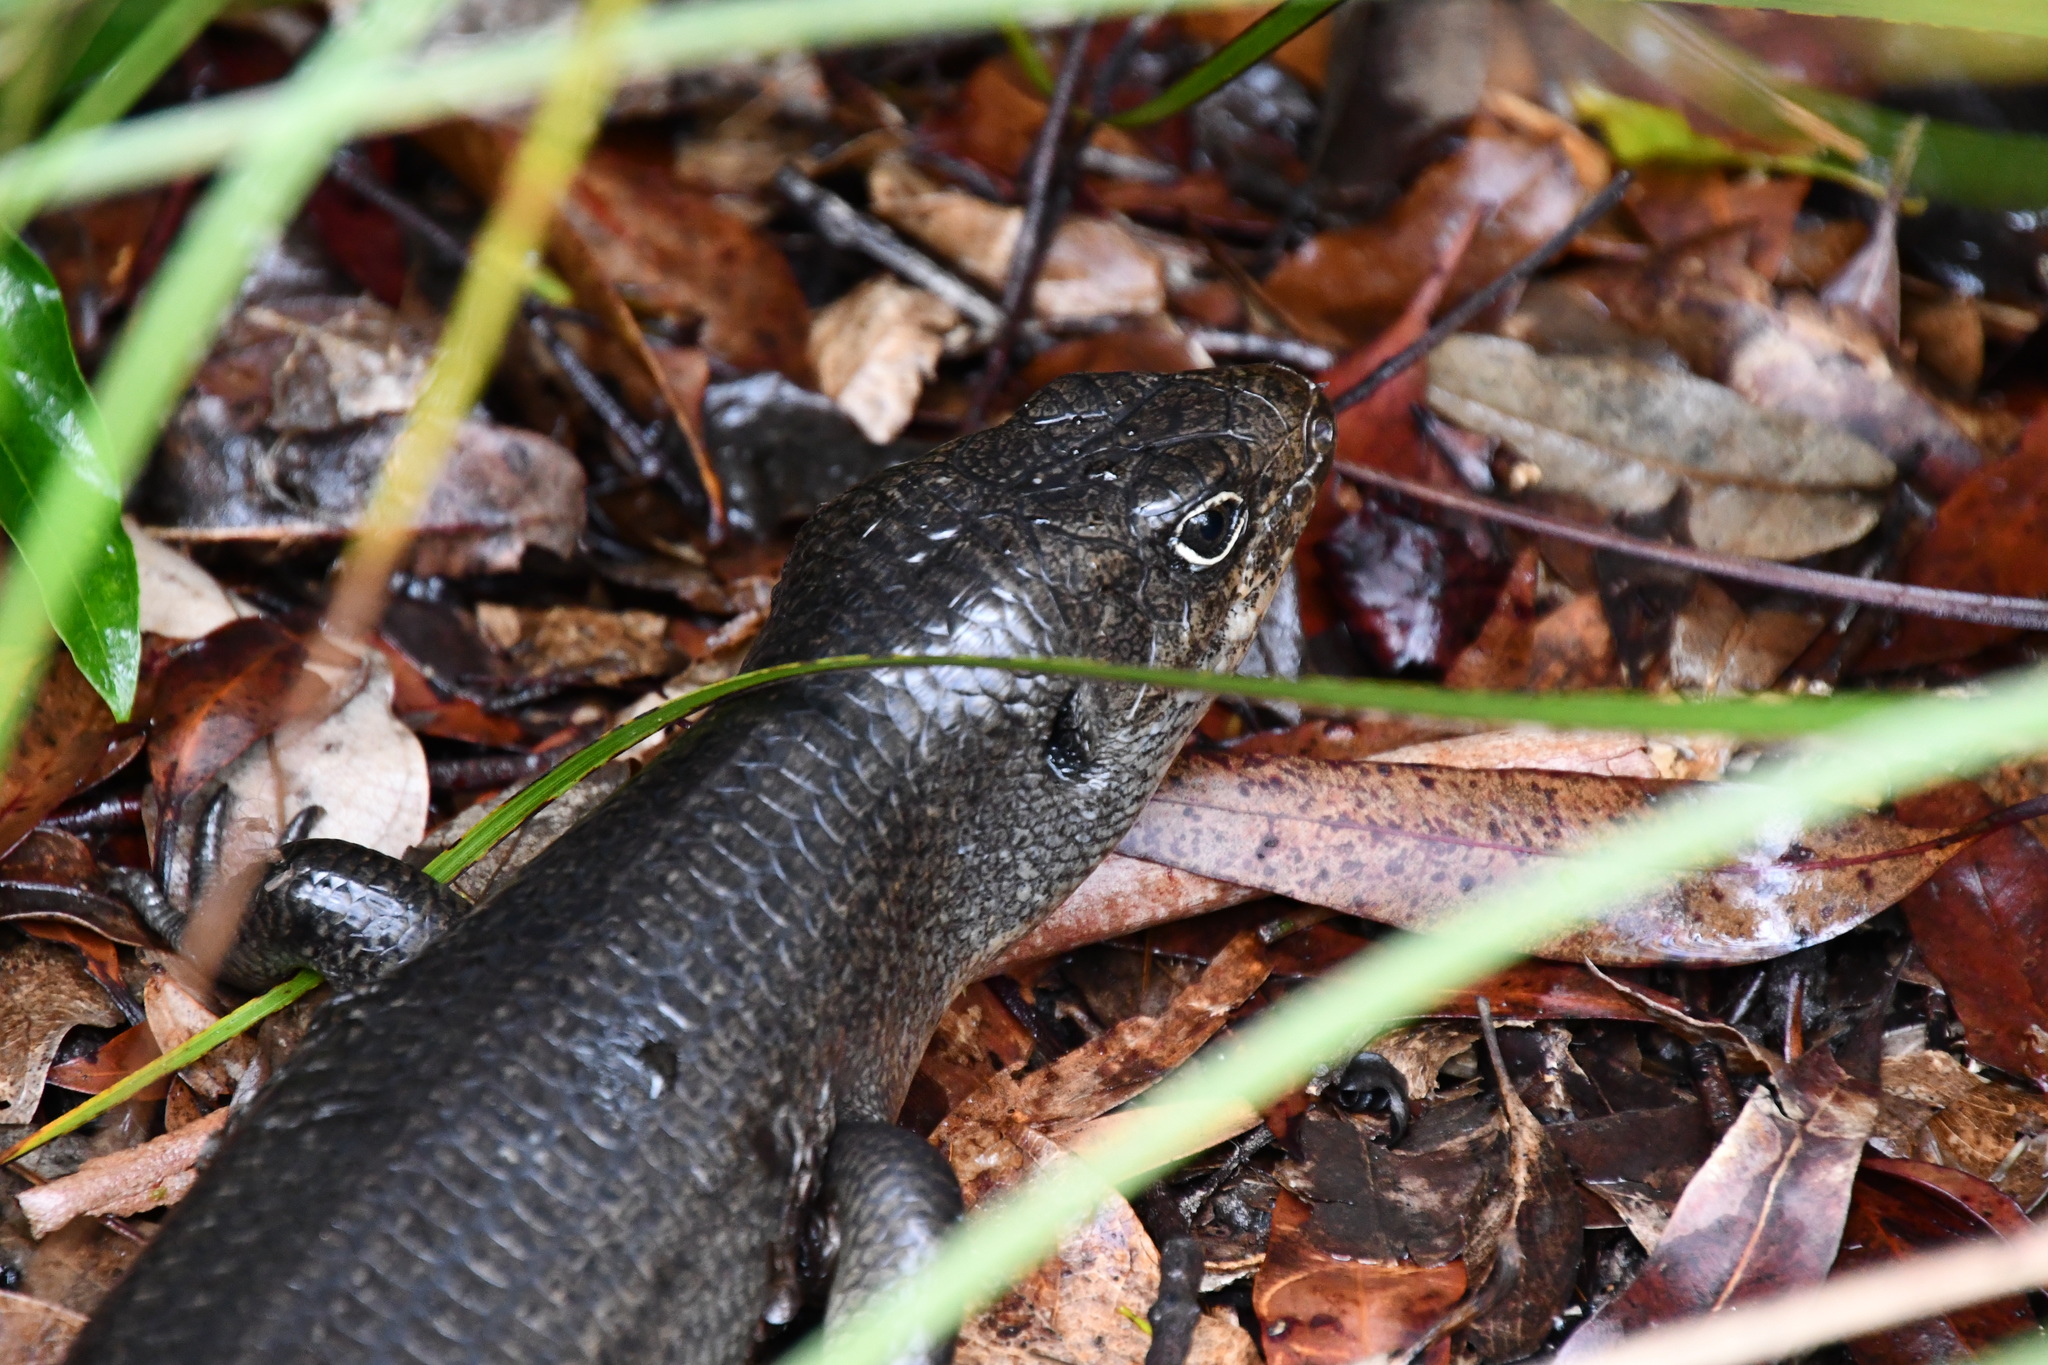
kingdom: Animalia
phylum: Chordata
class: Squamata
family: Scincidae
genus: Bellatorias
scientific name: Bellatorias major
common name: Land mullet
